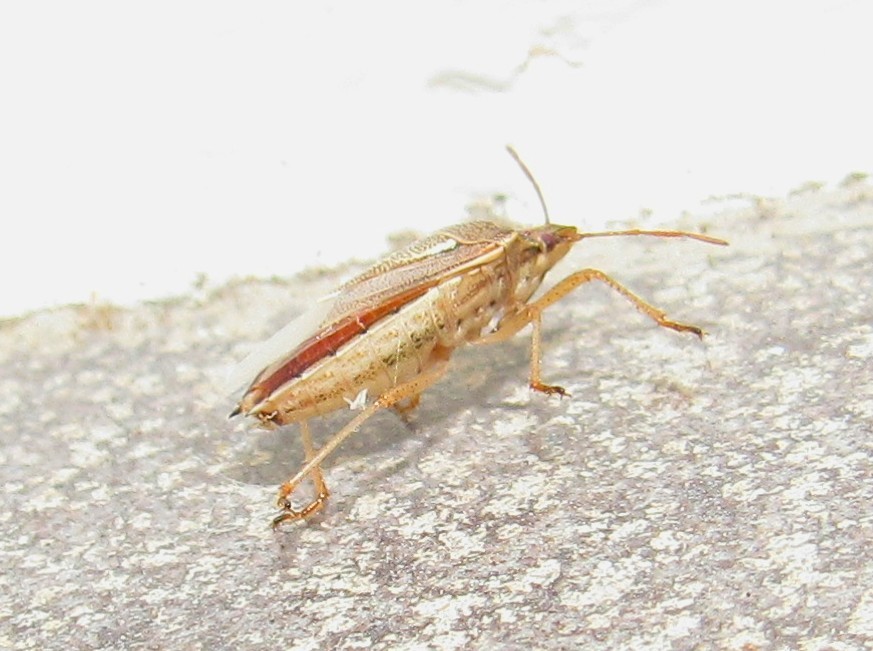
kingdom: Animalia
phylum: Arthropoda
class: Insecta
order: Hemiptera
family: Pentatomidae
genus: Oebalus
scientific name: Oebalus ypsilongriseus
